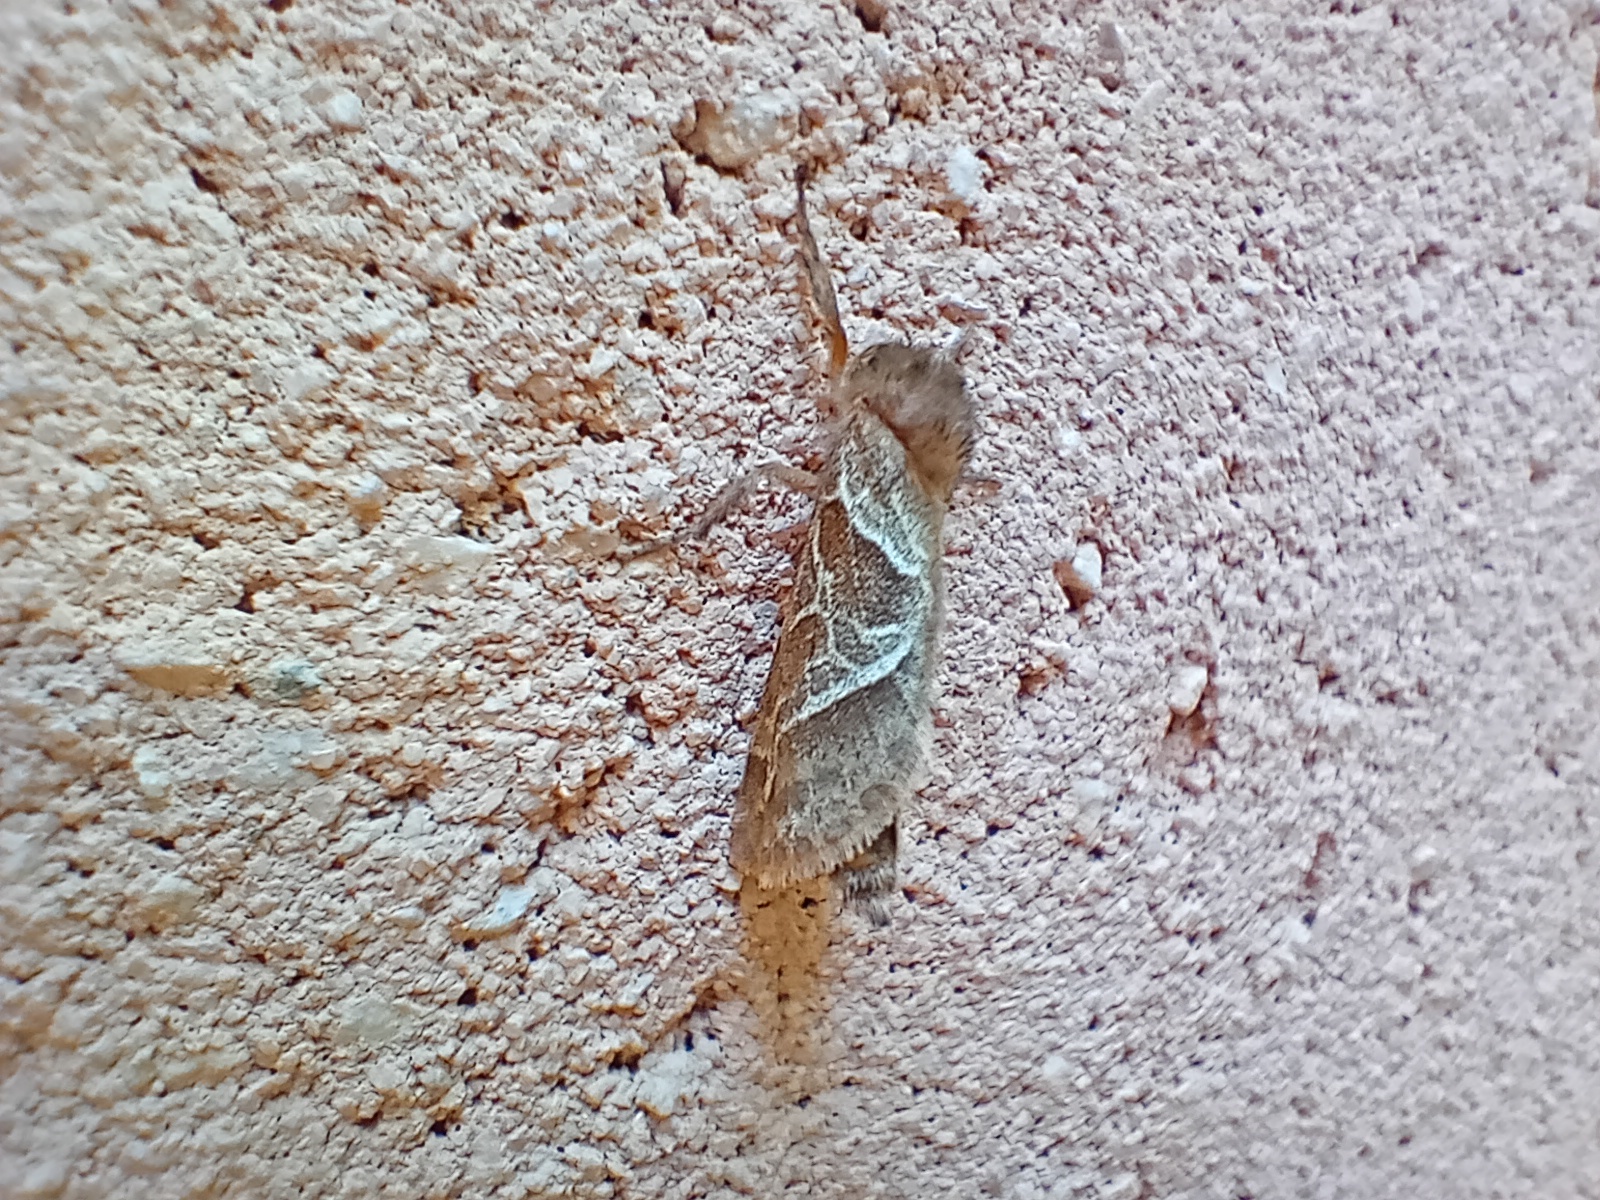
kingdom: Animalia
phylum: Arthropoda
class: Insecta
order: Lepidoptera
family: Hepialidae
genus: Triodia
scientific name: Triodia sylvina
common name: Orange swift
